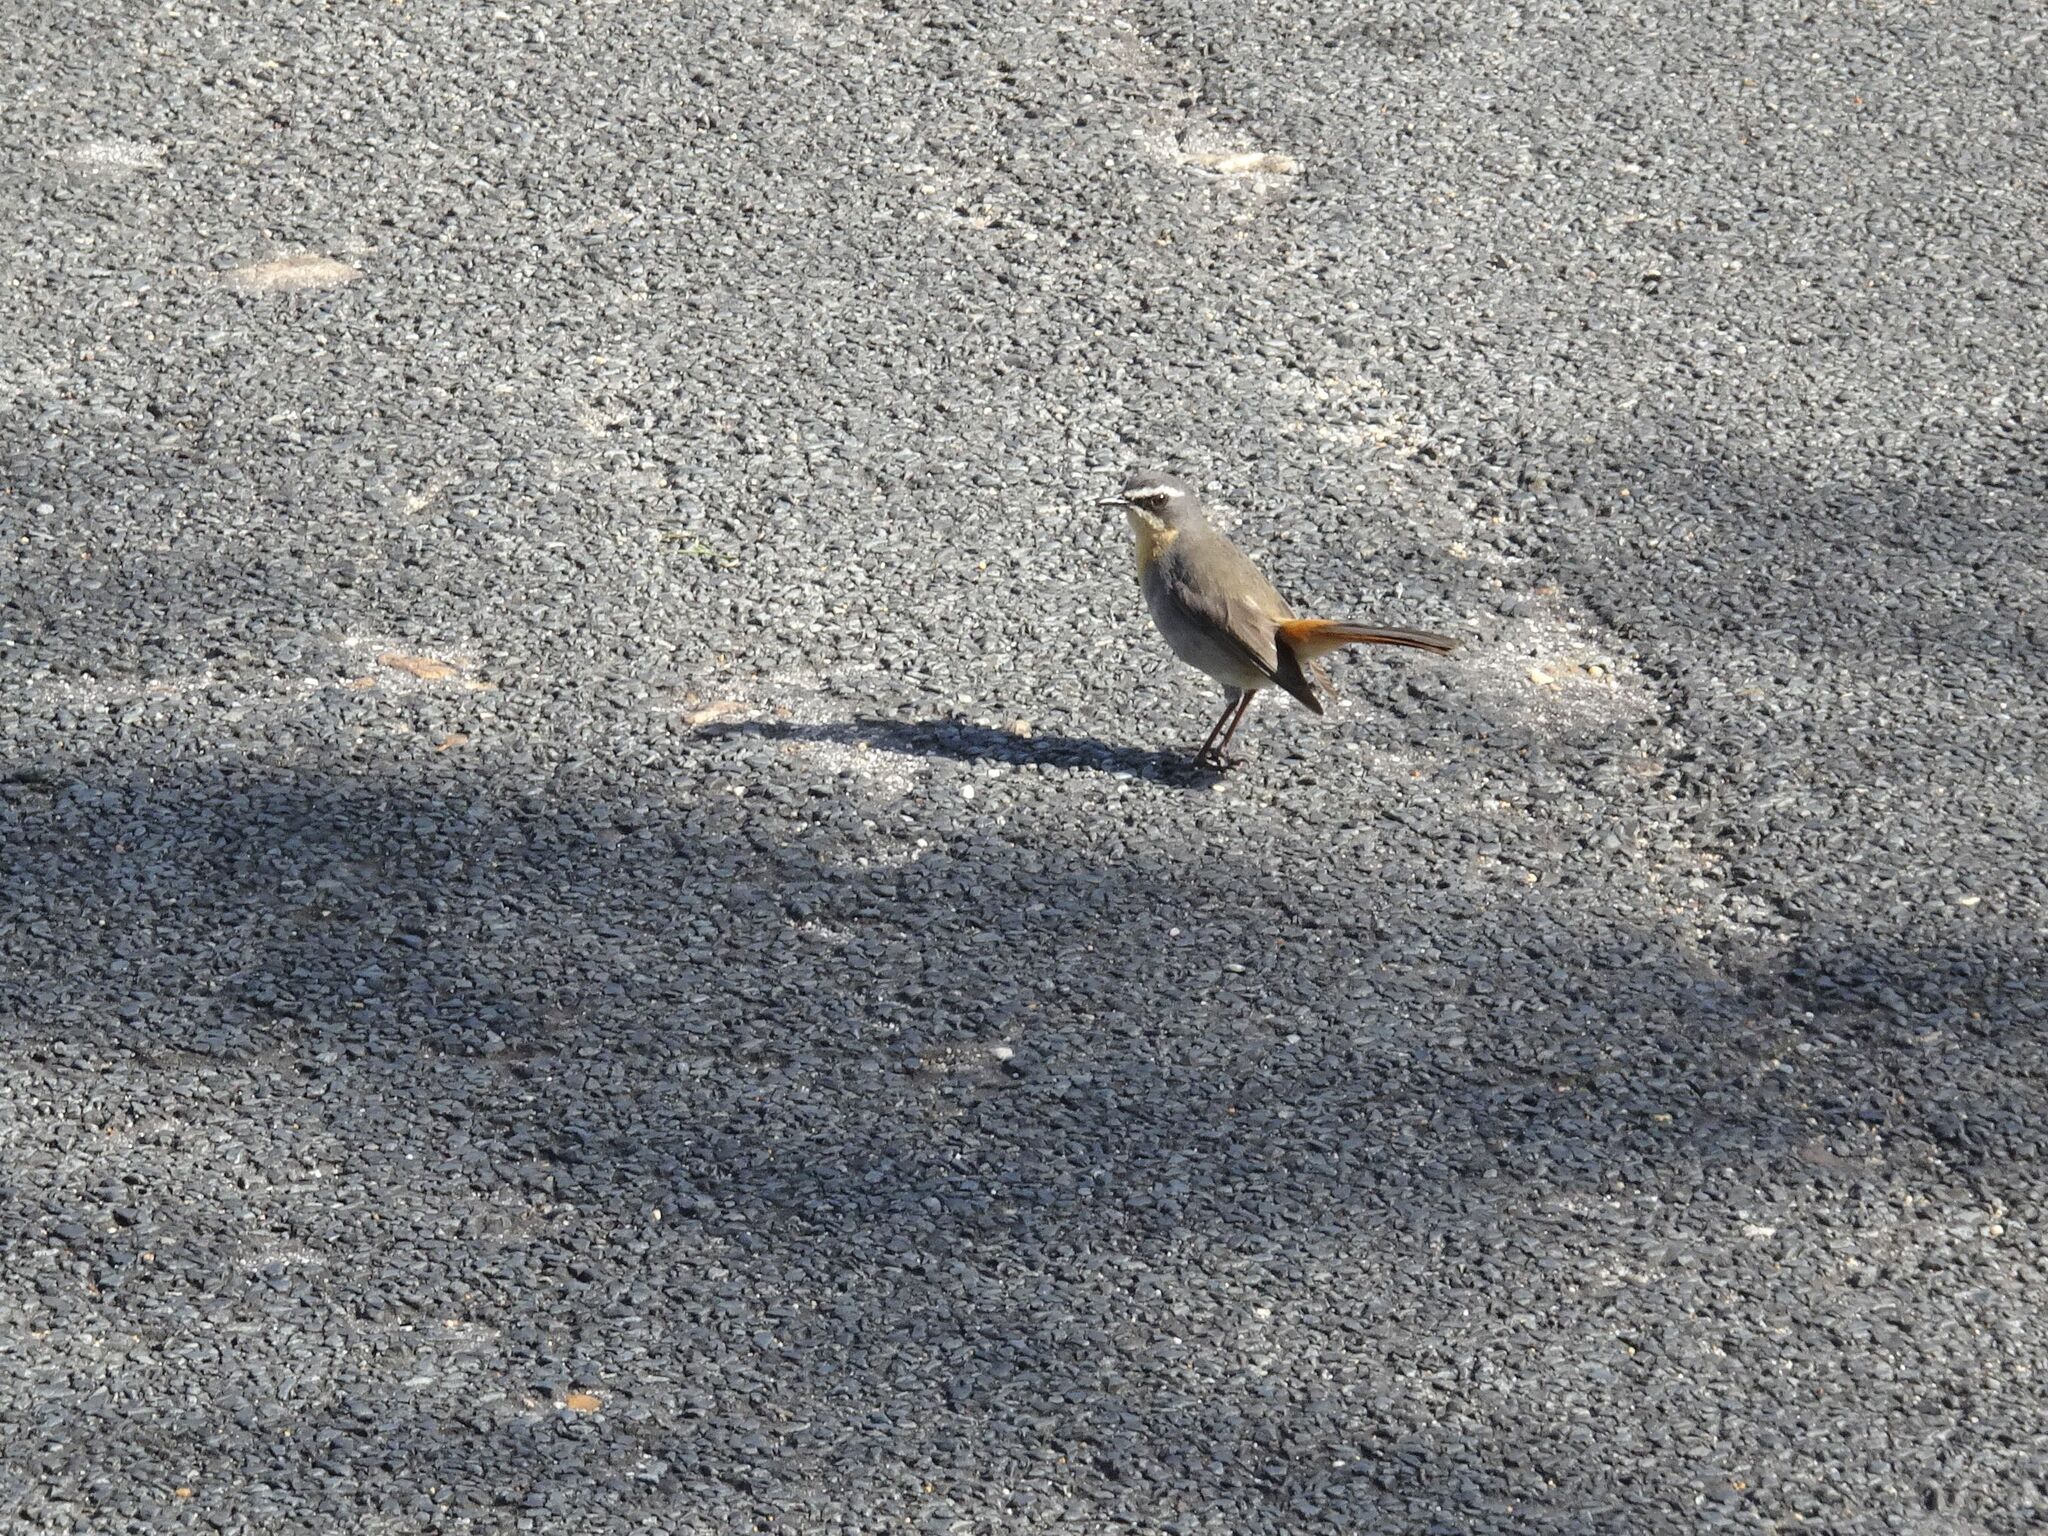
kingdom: Animalia
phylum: Chordata
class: Aves
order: Passeriformes
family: Muscicapidae
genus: Cossypha
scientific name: Cossypha caffra
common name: Cape robin-chat
